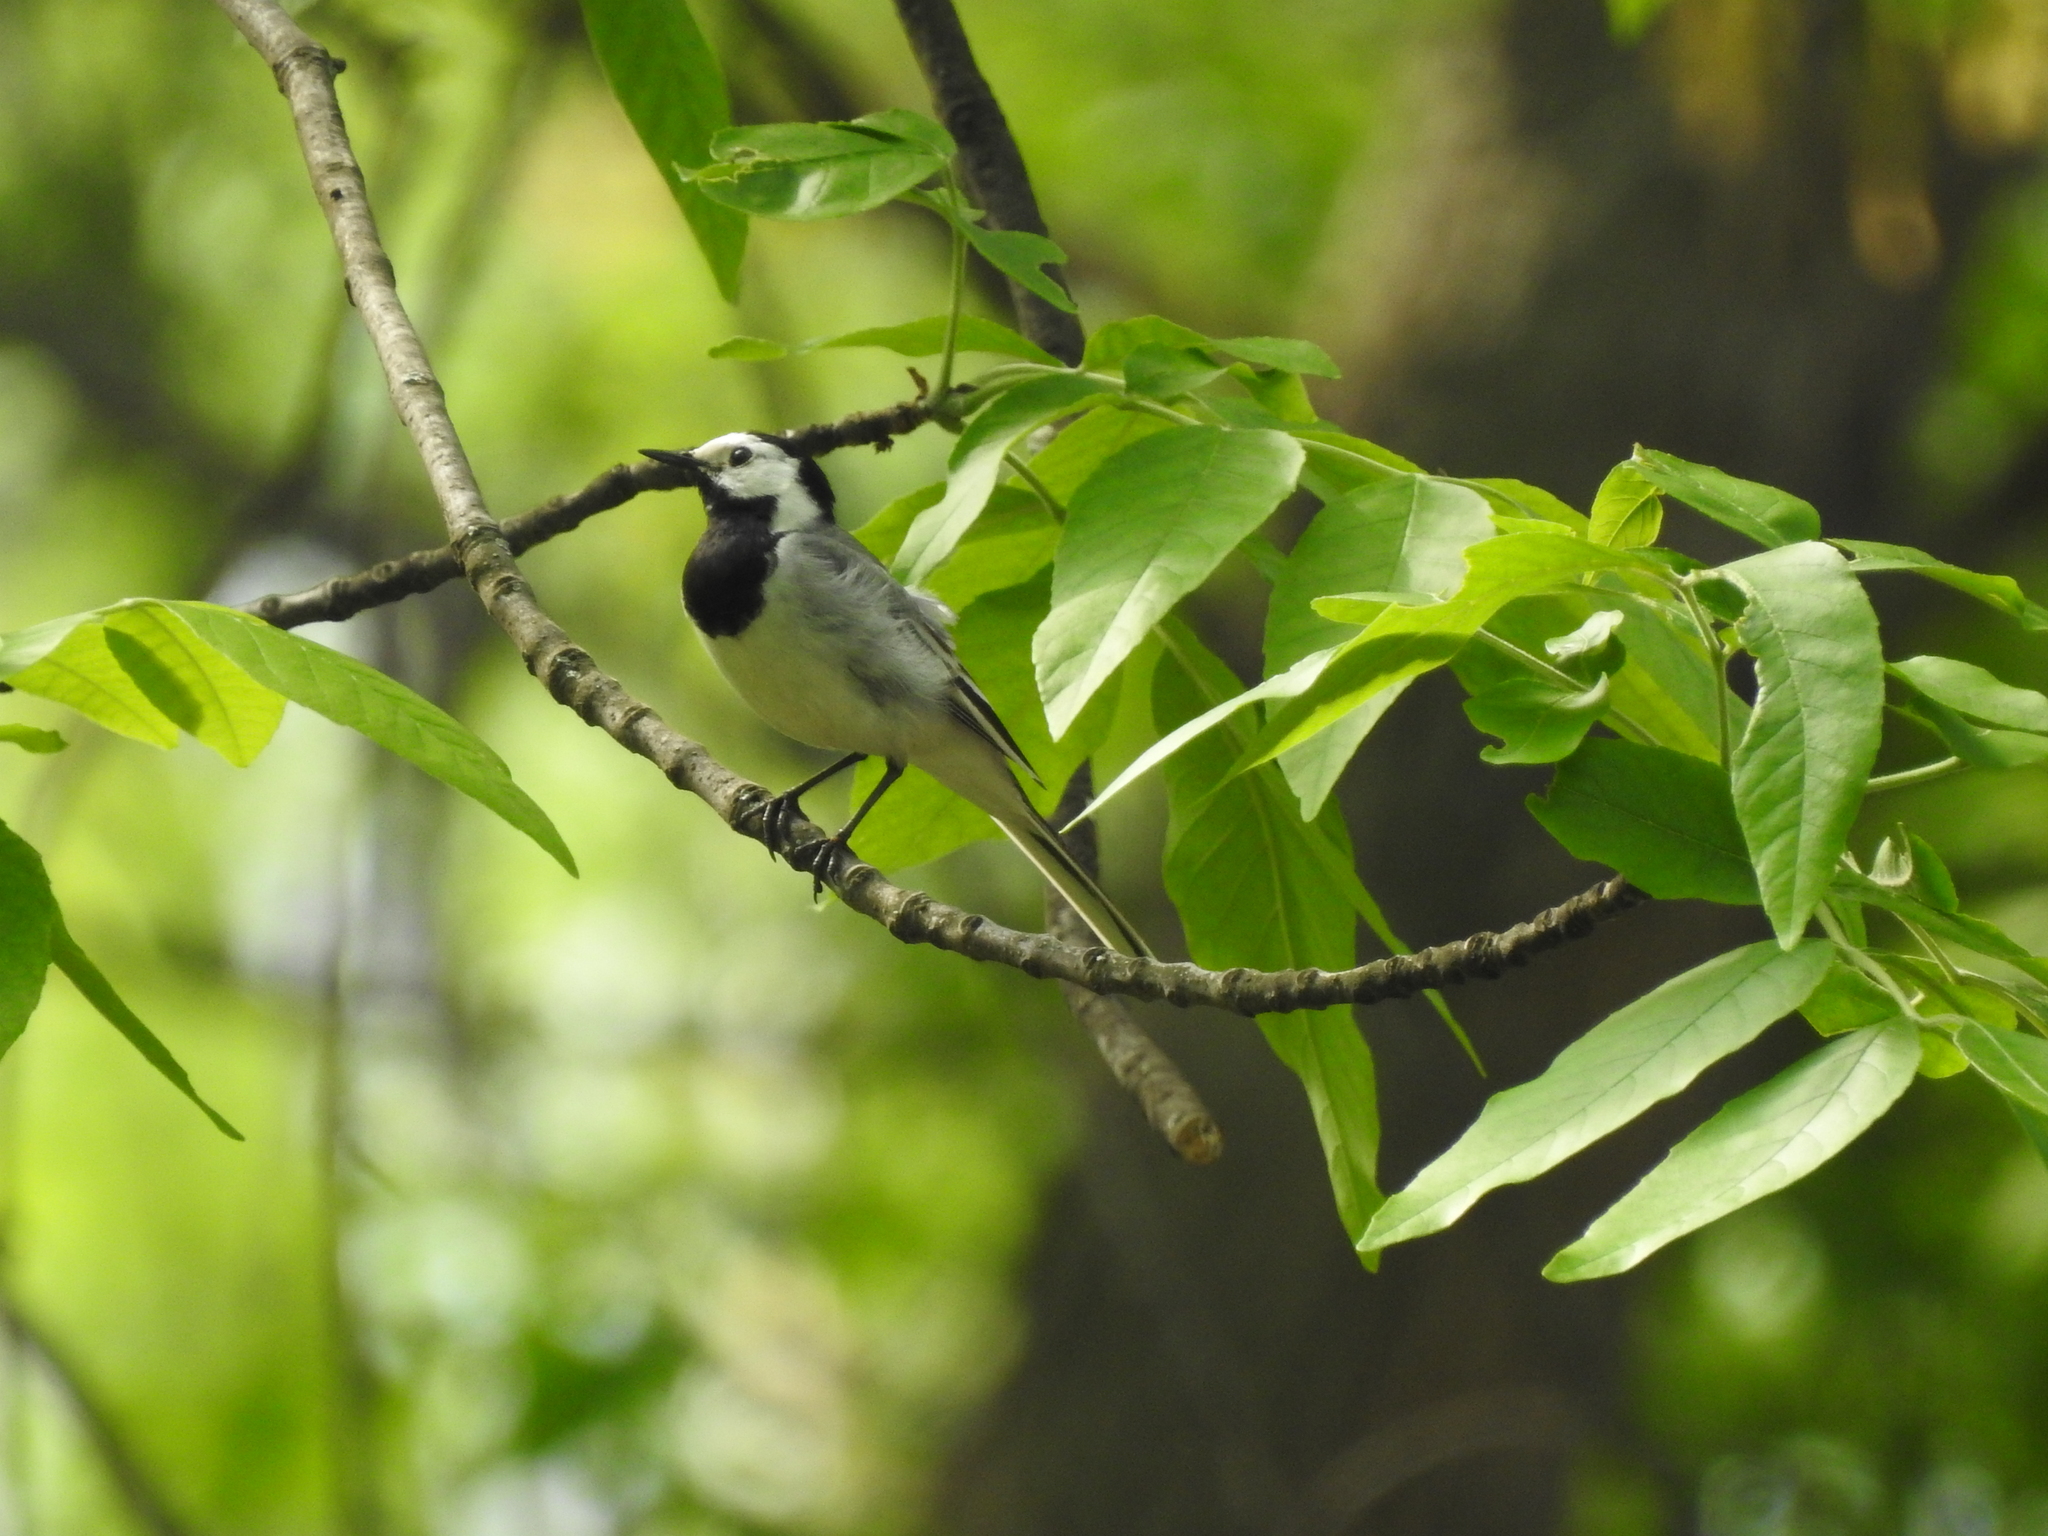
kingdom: Animalia
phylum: Chordata
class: Aves
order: Passeriformes
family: Motacillidae
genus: Motacilla
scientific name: Motacilla alba
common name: White wagtail
